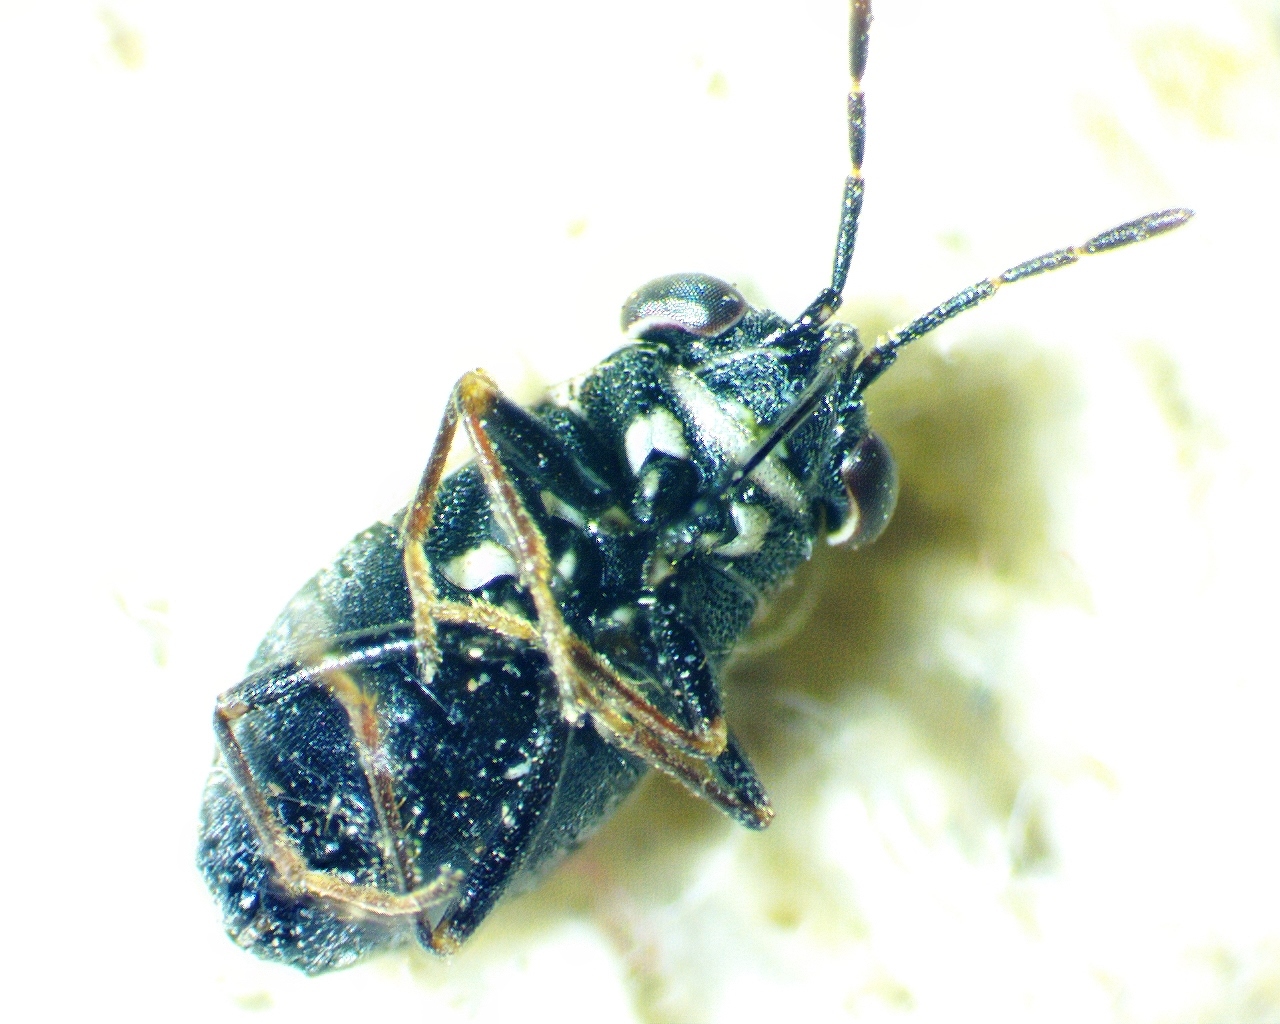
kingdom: Animalia
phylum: Arthropoda
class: Insecta
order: Hemiptera
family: Geocoridae
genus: Geocoris
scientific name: Geocoris floridanus
